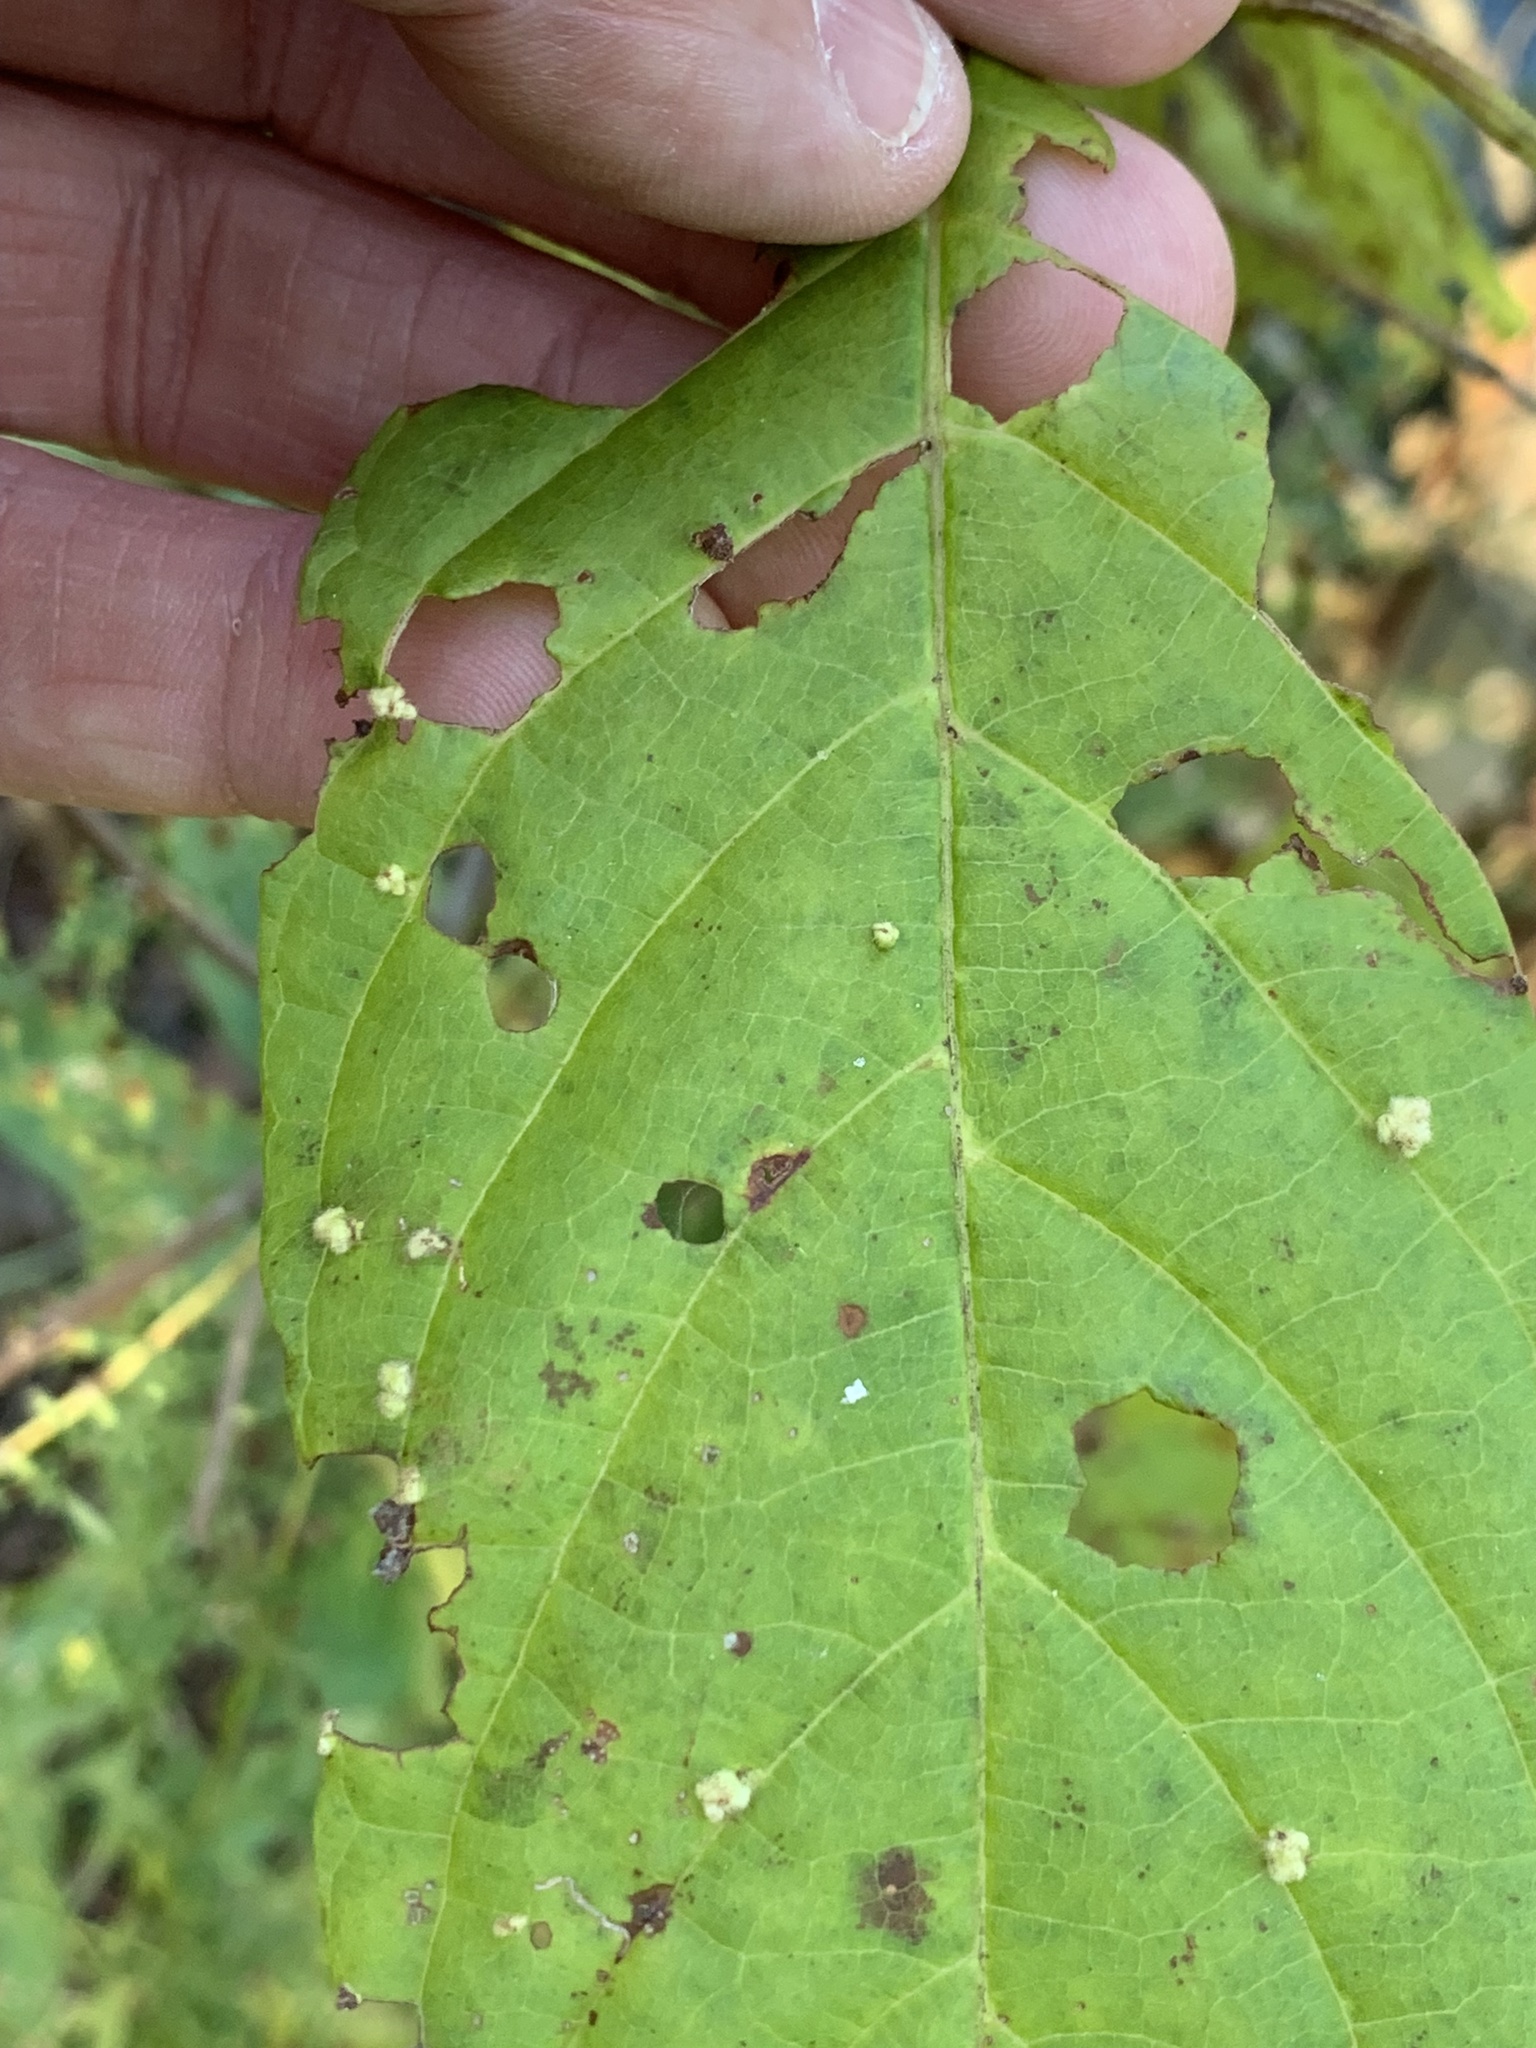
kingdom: Animalia
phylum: Arthropoda
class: Arachnida
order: Trombidiformes
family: Eriophyidae
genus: Aceria
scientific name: Aceria
